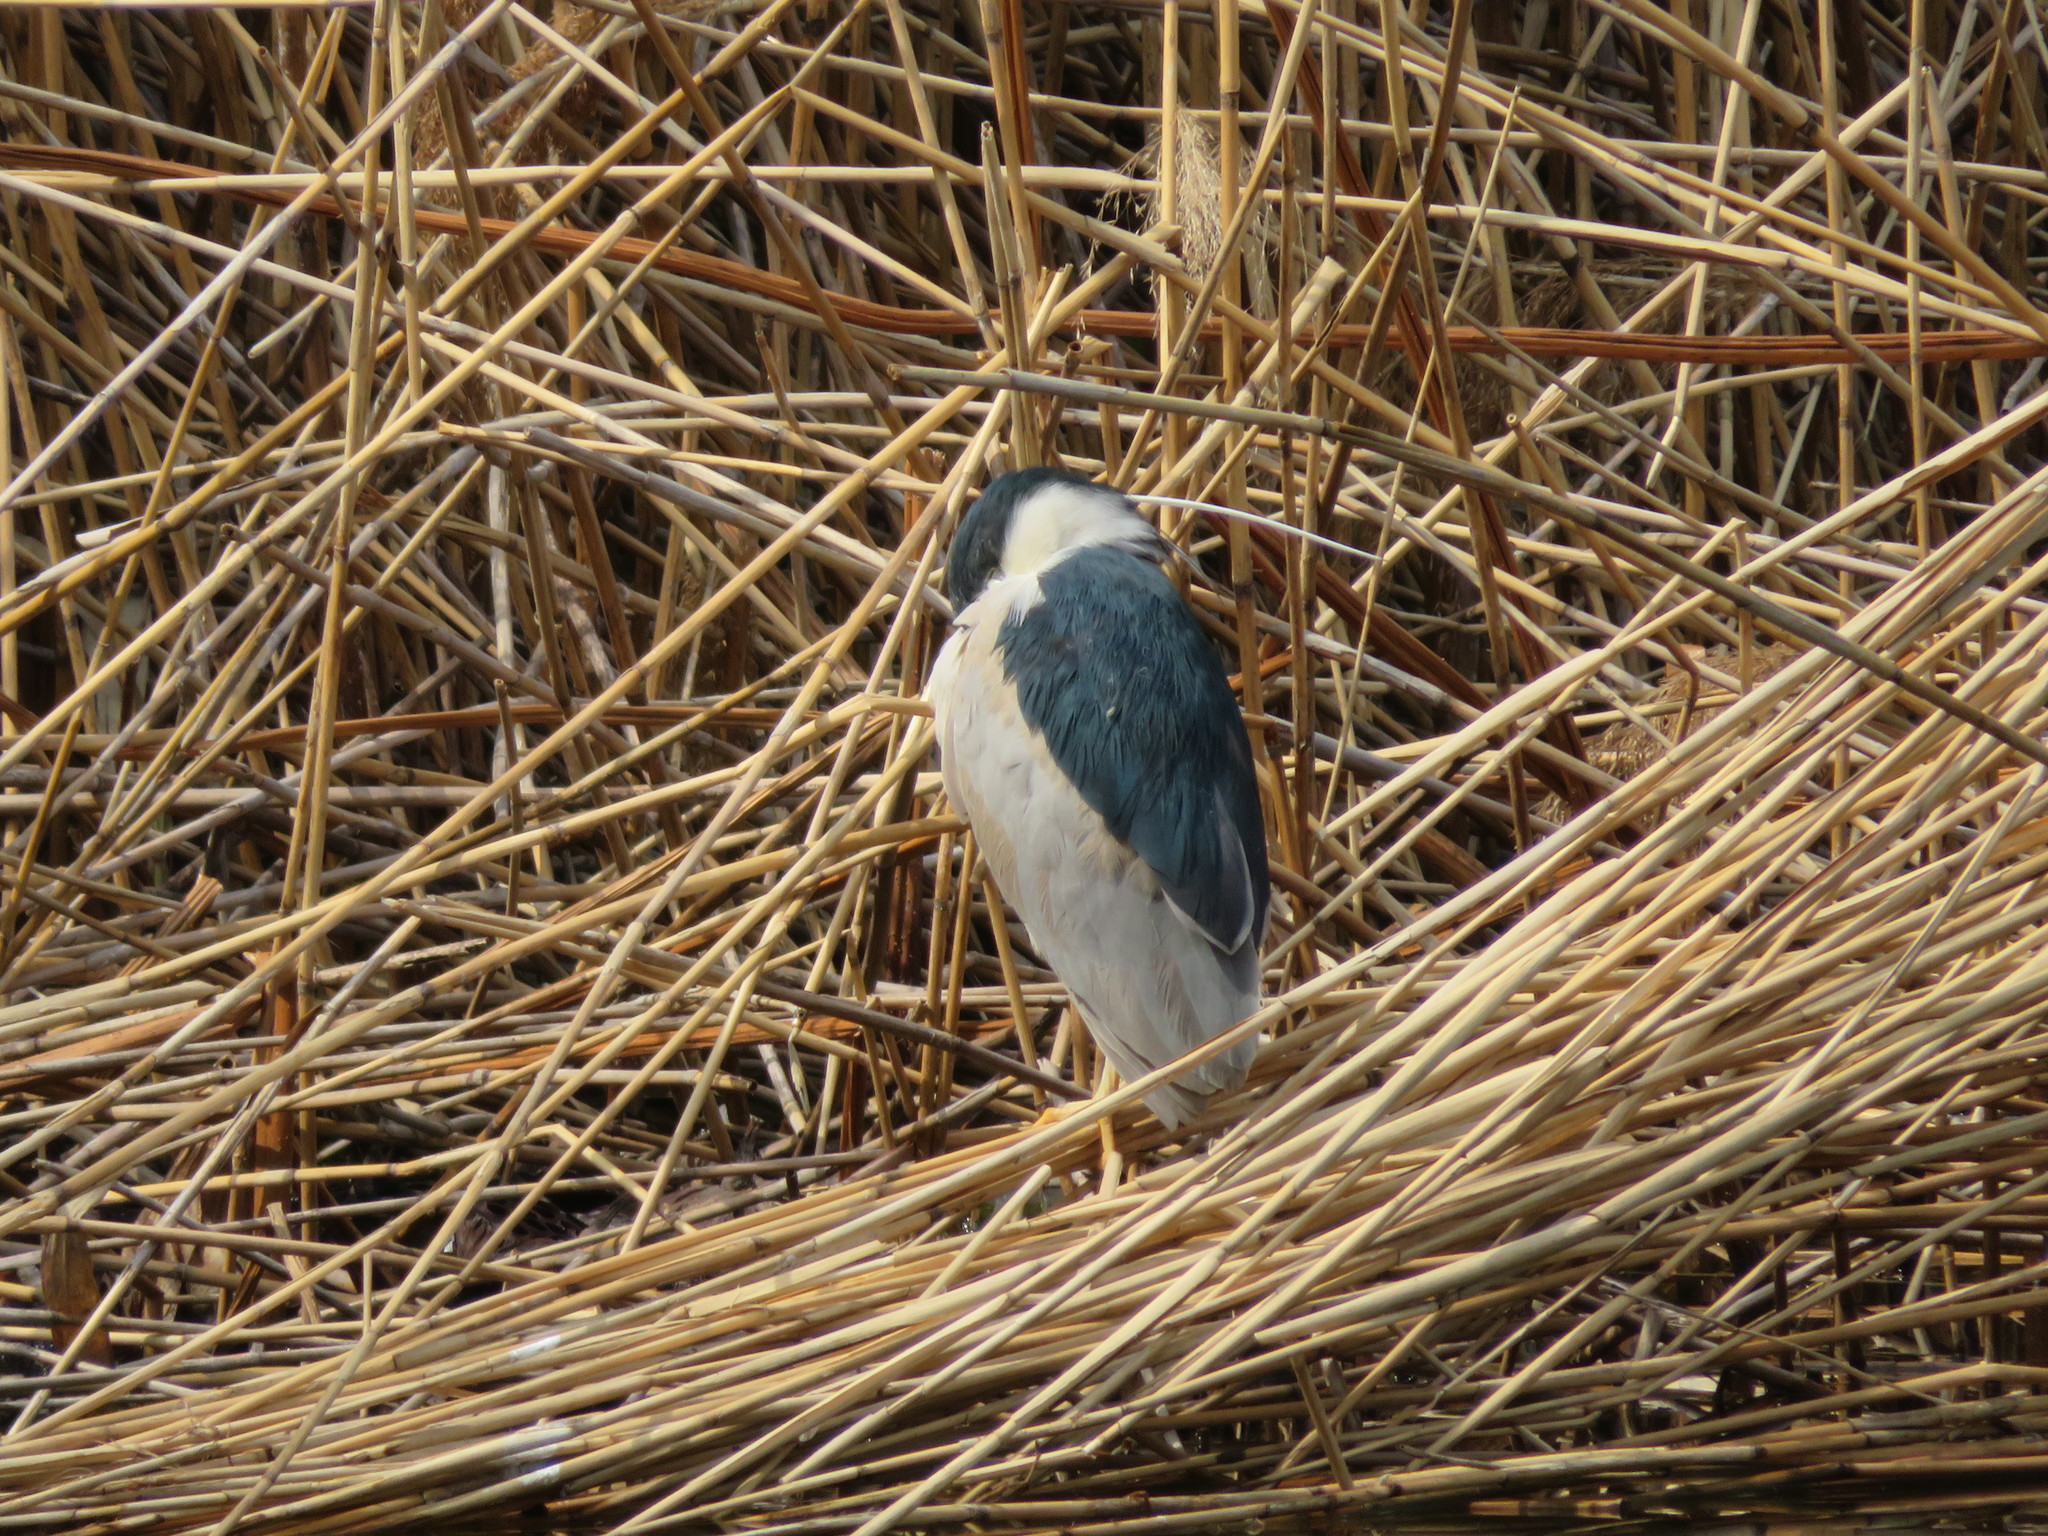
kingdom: Animalia
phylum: Chordata
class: Aves
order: Pelecaniformes
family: Ardeidae
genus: Nycticorax
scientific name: Nycticorax nycticorax
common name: Black-crowned night heron
